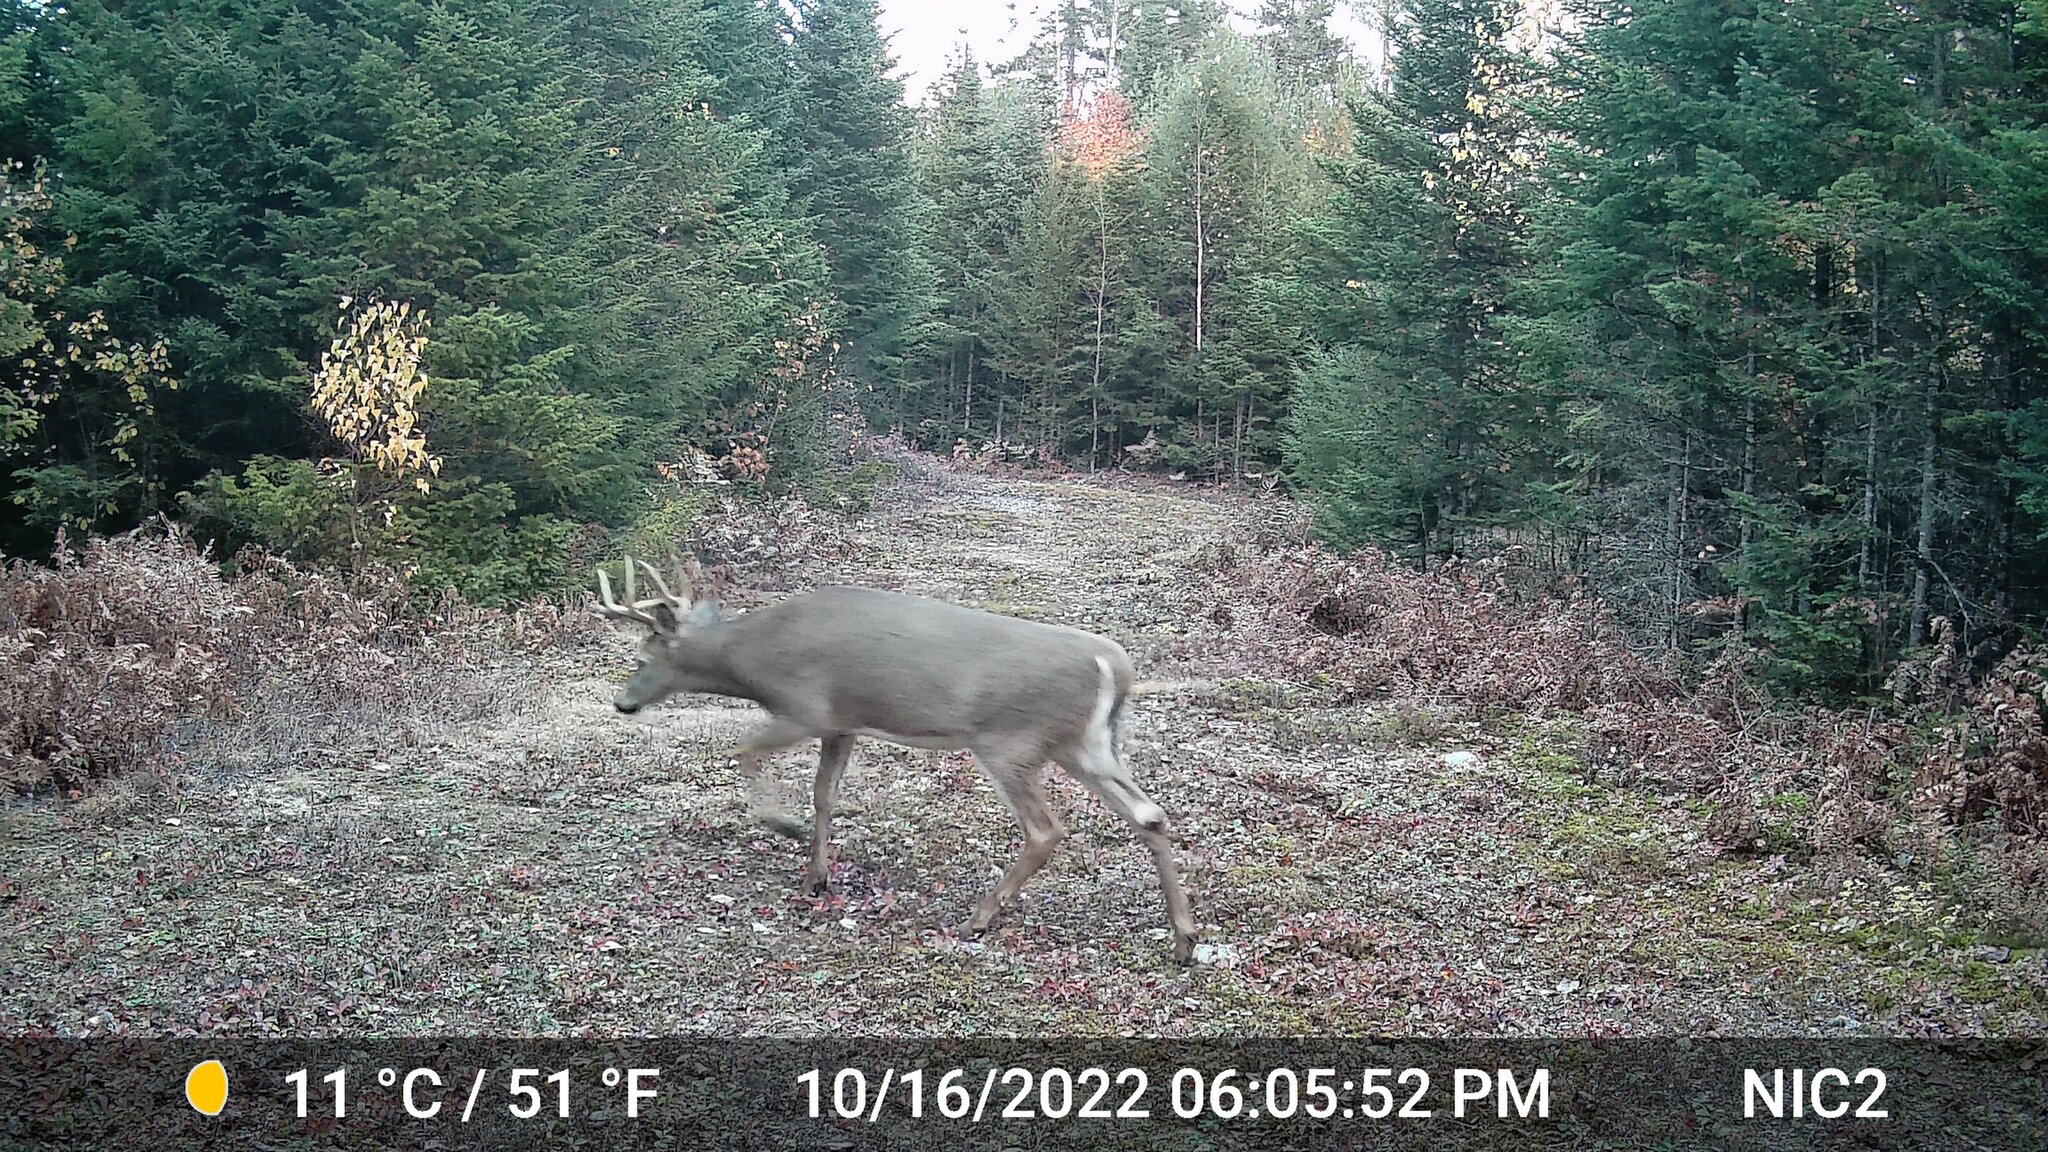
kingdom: Animalia
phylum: Chordata
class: Mammalia
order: Artiodactyla
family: Cervidae
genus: Odocoileus
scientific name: Odocoileus virginianus
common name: White-tailed deer
